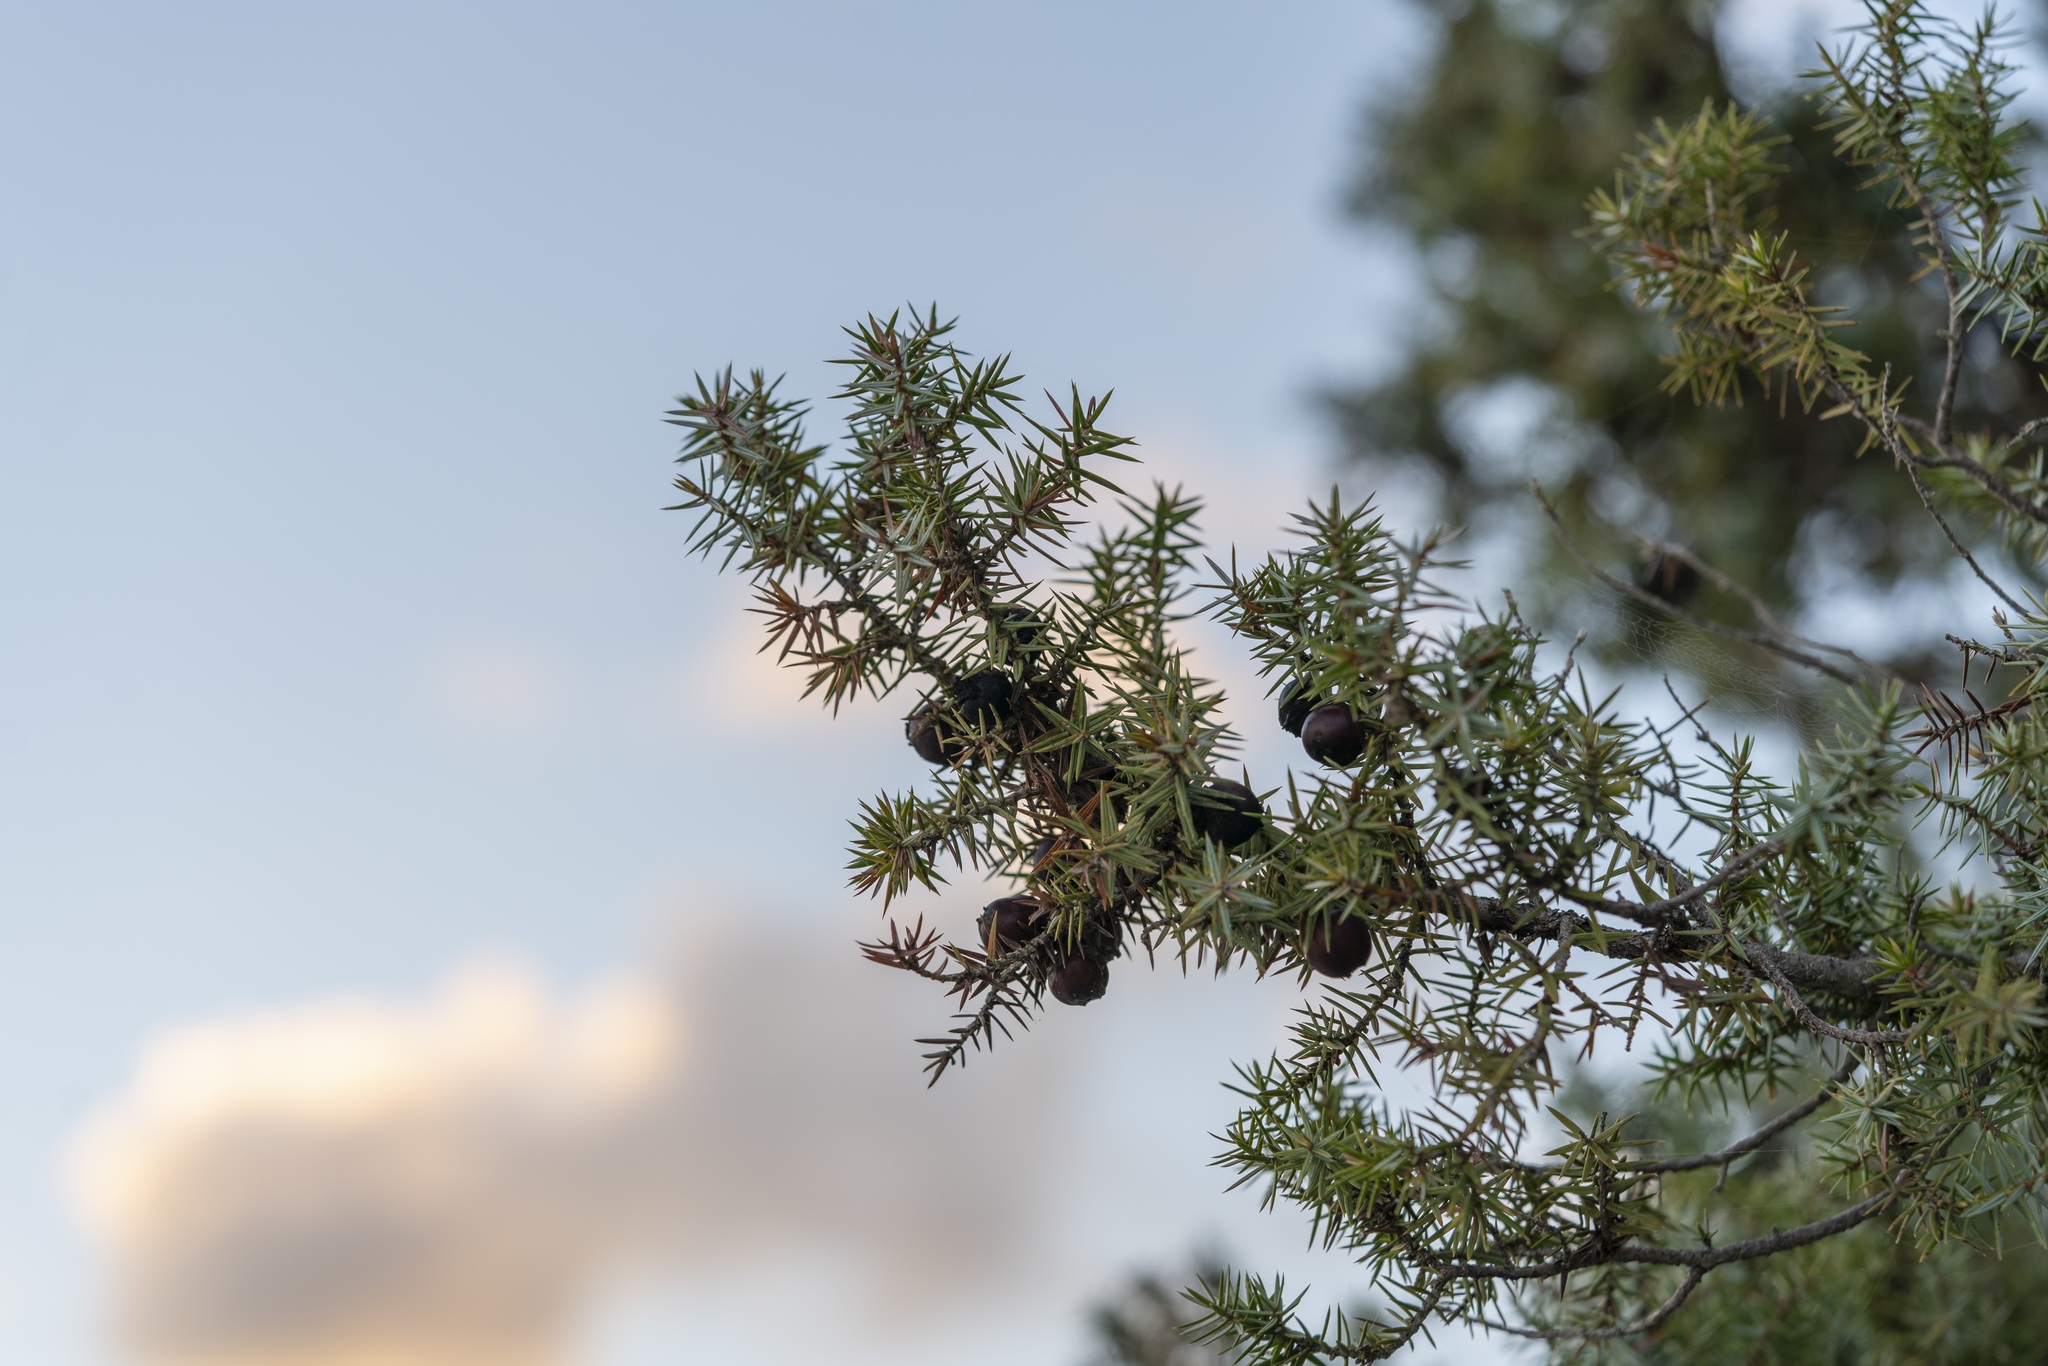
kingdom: Plantae
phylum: Tracheophyta
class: Pinopsida
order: Pinales
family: Cupressaceae
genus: Juniperus
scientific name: Juniperus oxycedrus
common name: Prickly juniper
